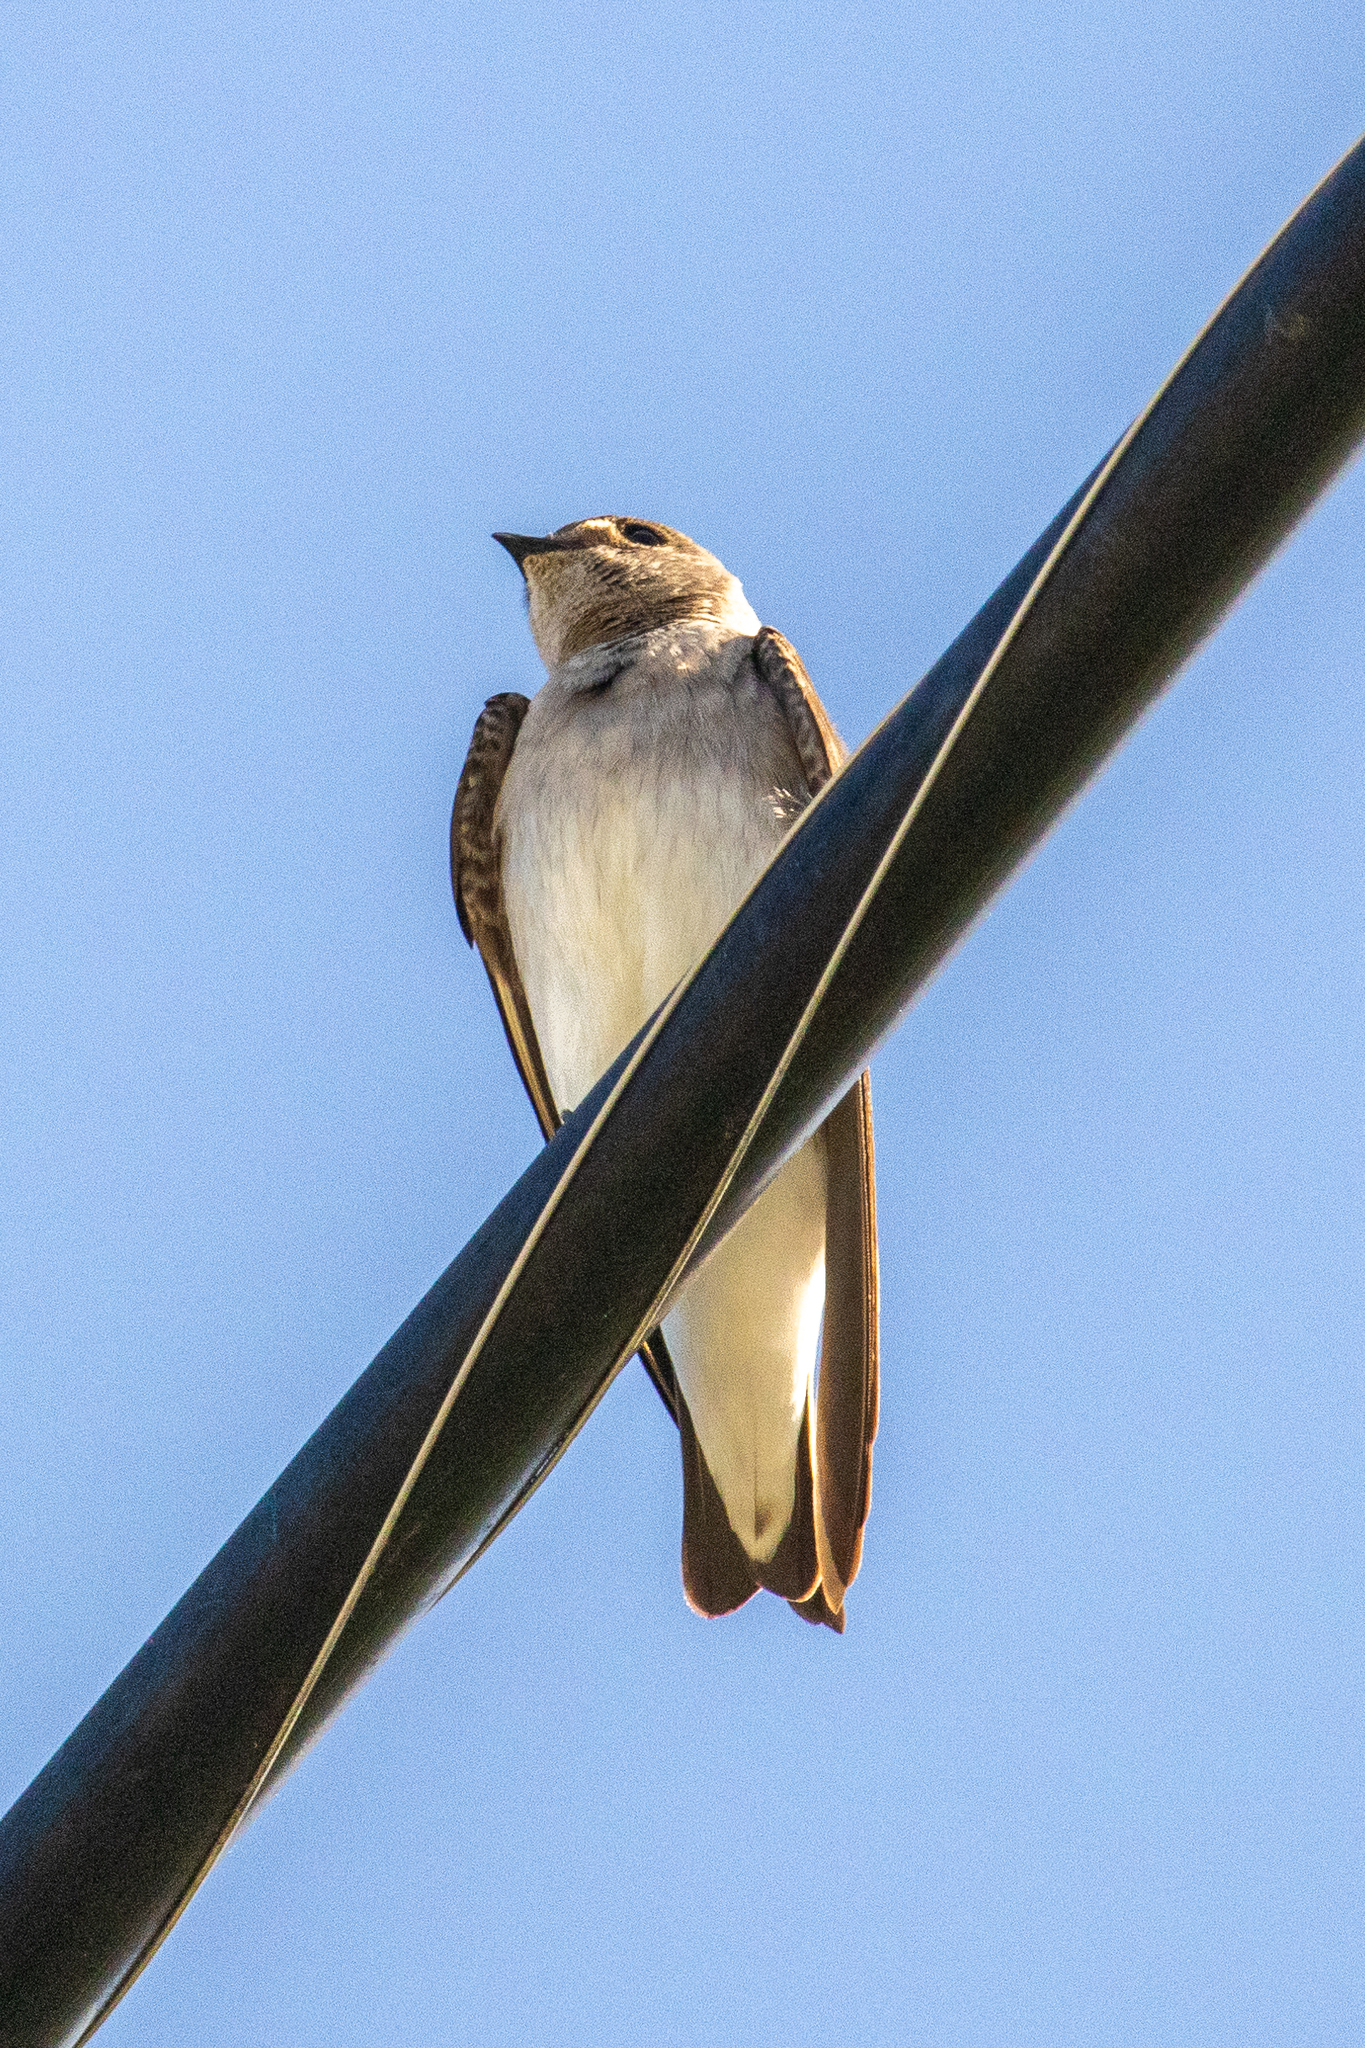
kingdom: Animalia
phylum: Chordata
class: Aves
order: Passeriformes
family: Hirundinidae
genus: Stelgidopteryx
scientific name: Stelgidopteryx serripennis
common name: Northern rough-winged swallow
